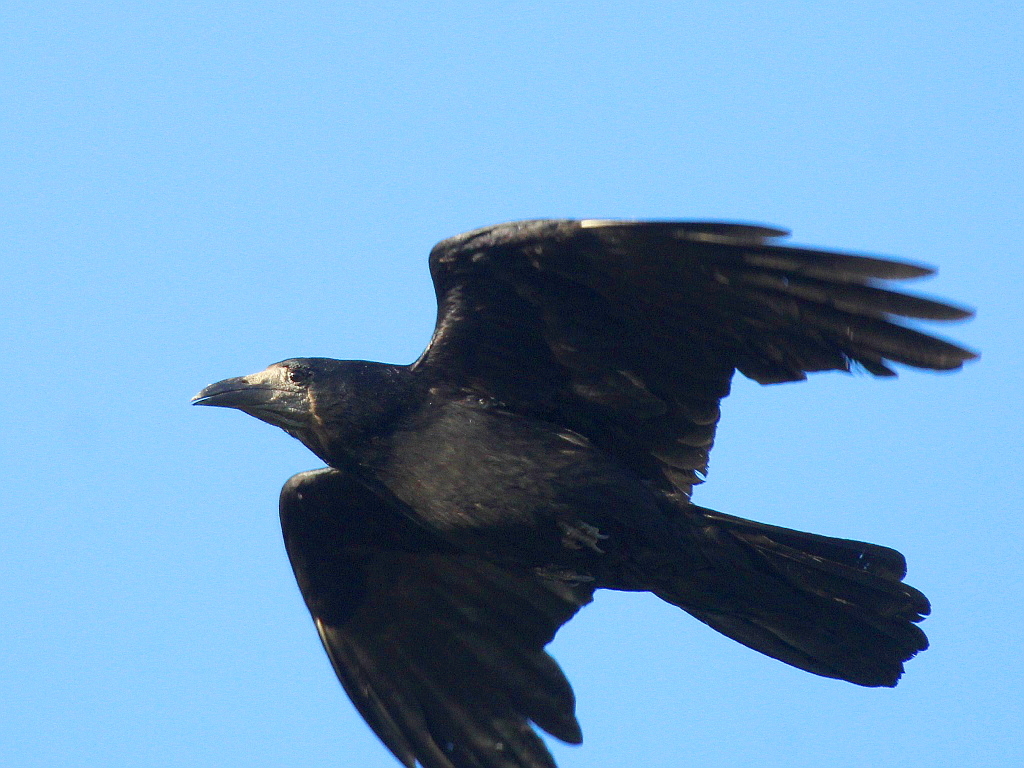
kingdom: Animalia
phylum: Chordata
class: Aves
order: Passeriformes
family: Corvidae
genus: Corvus
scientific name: Corvus frugilegus
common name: Rook
